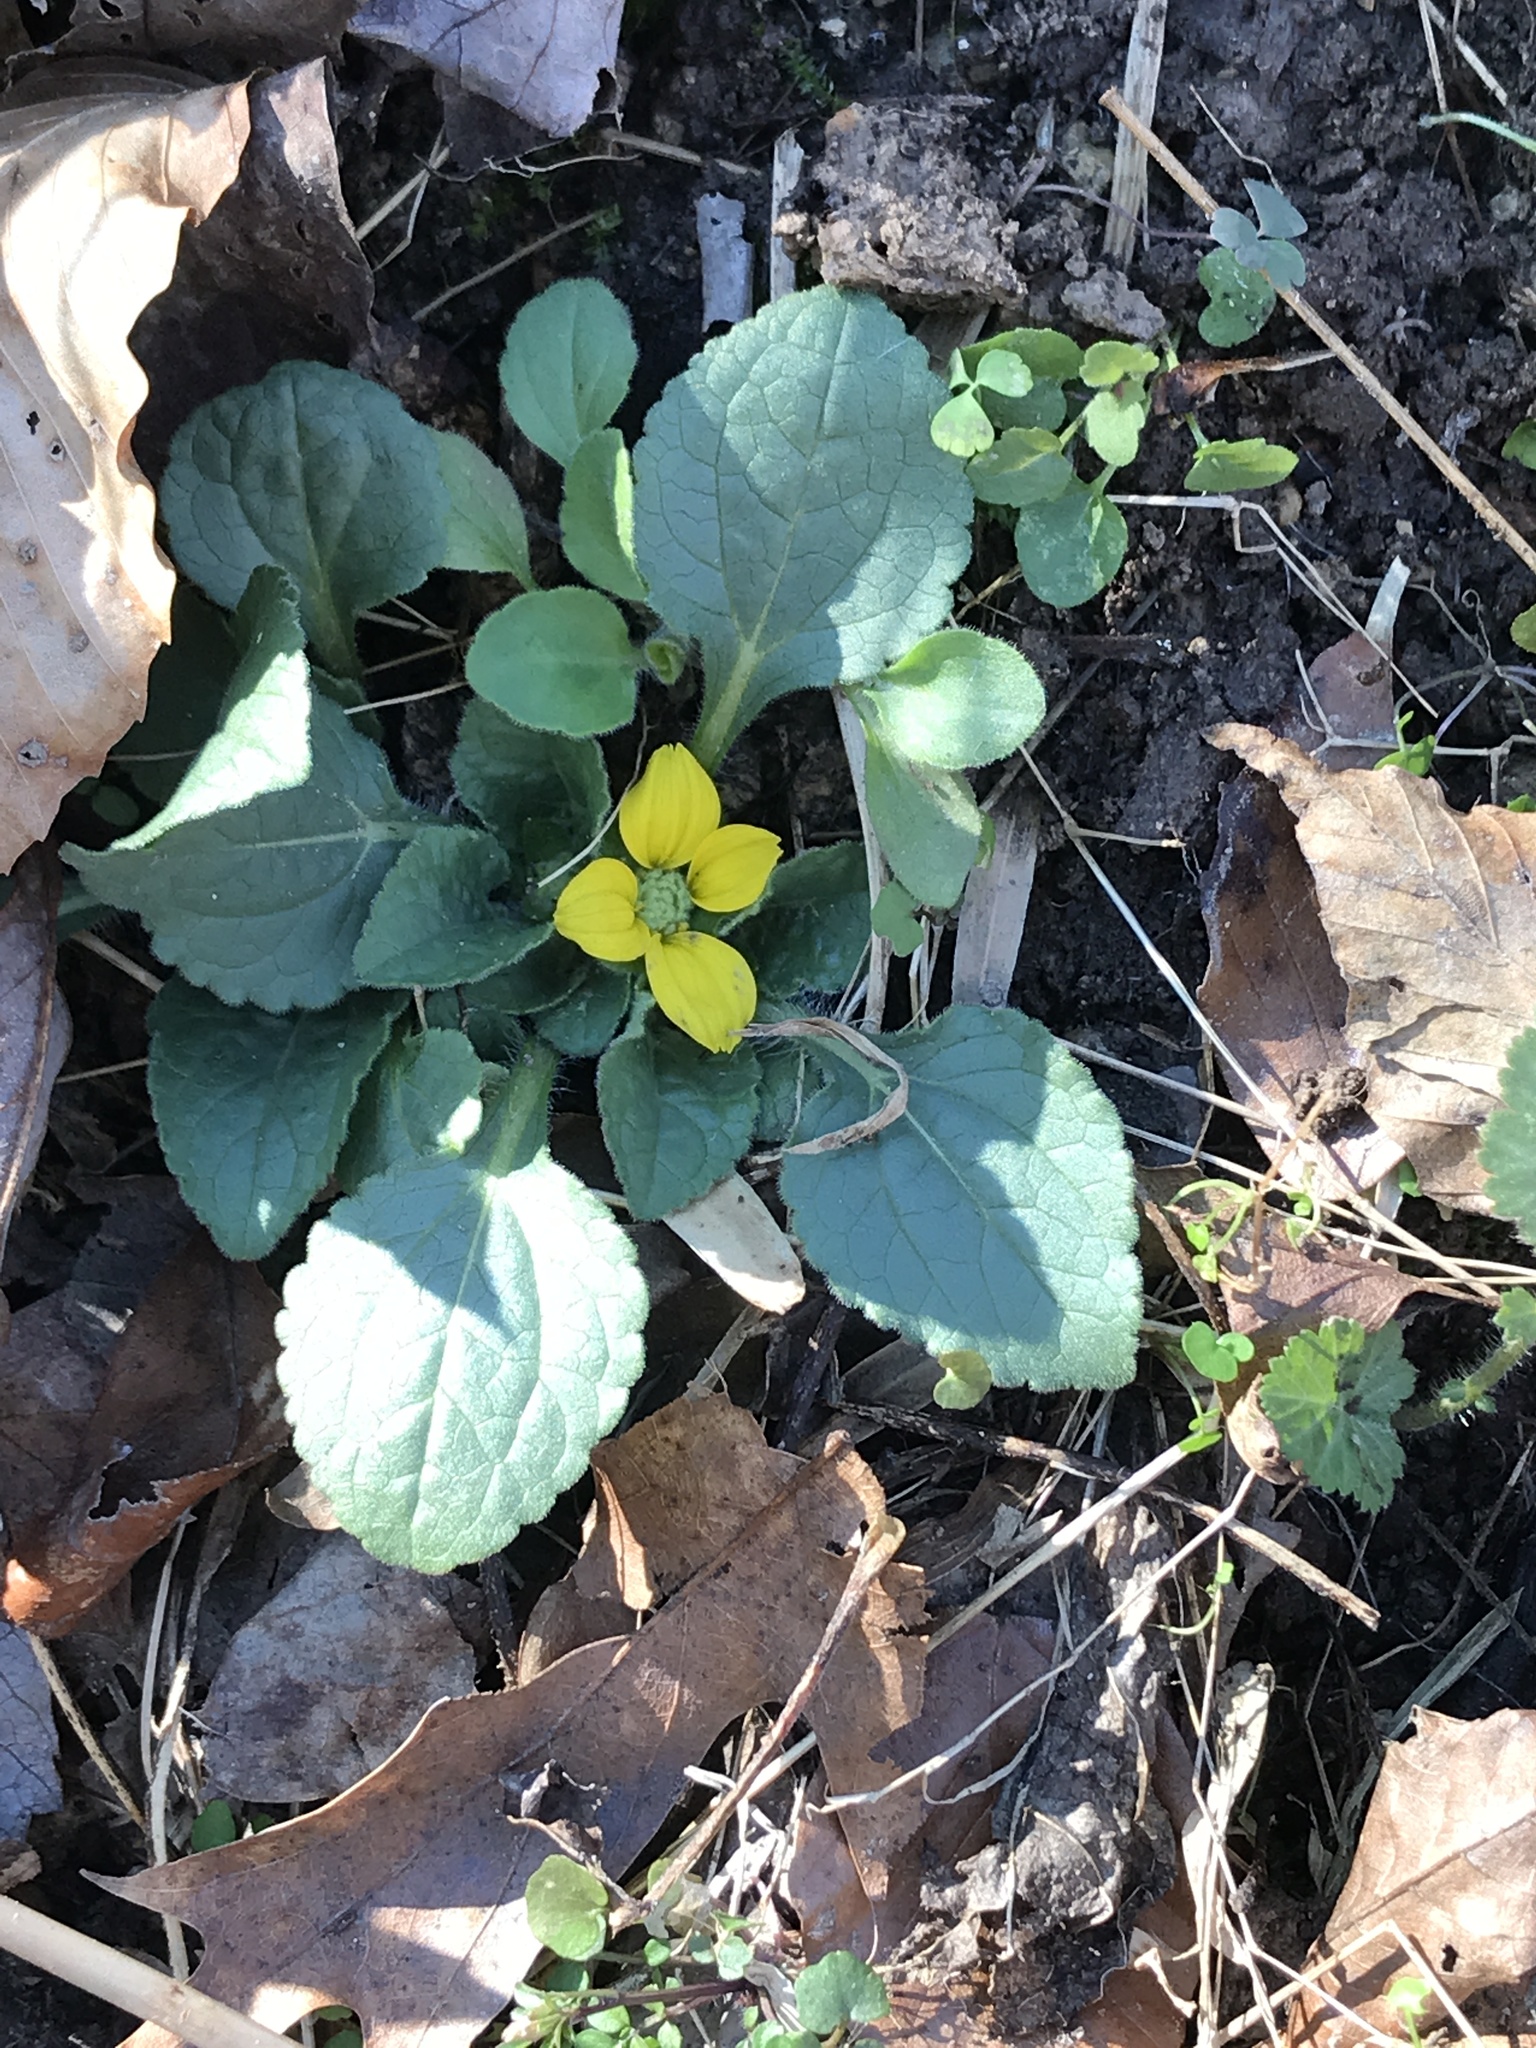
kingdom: Plantae
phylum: Tracheophyta
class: Magnoliopsida
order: Asterales
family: Asteraceae
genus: Chrysogonum
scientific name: Chrysogonum virginianum
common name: Golden-knee
